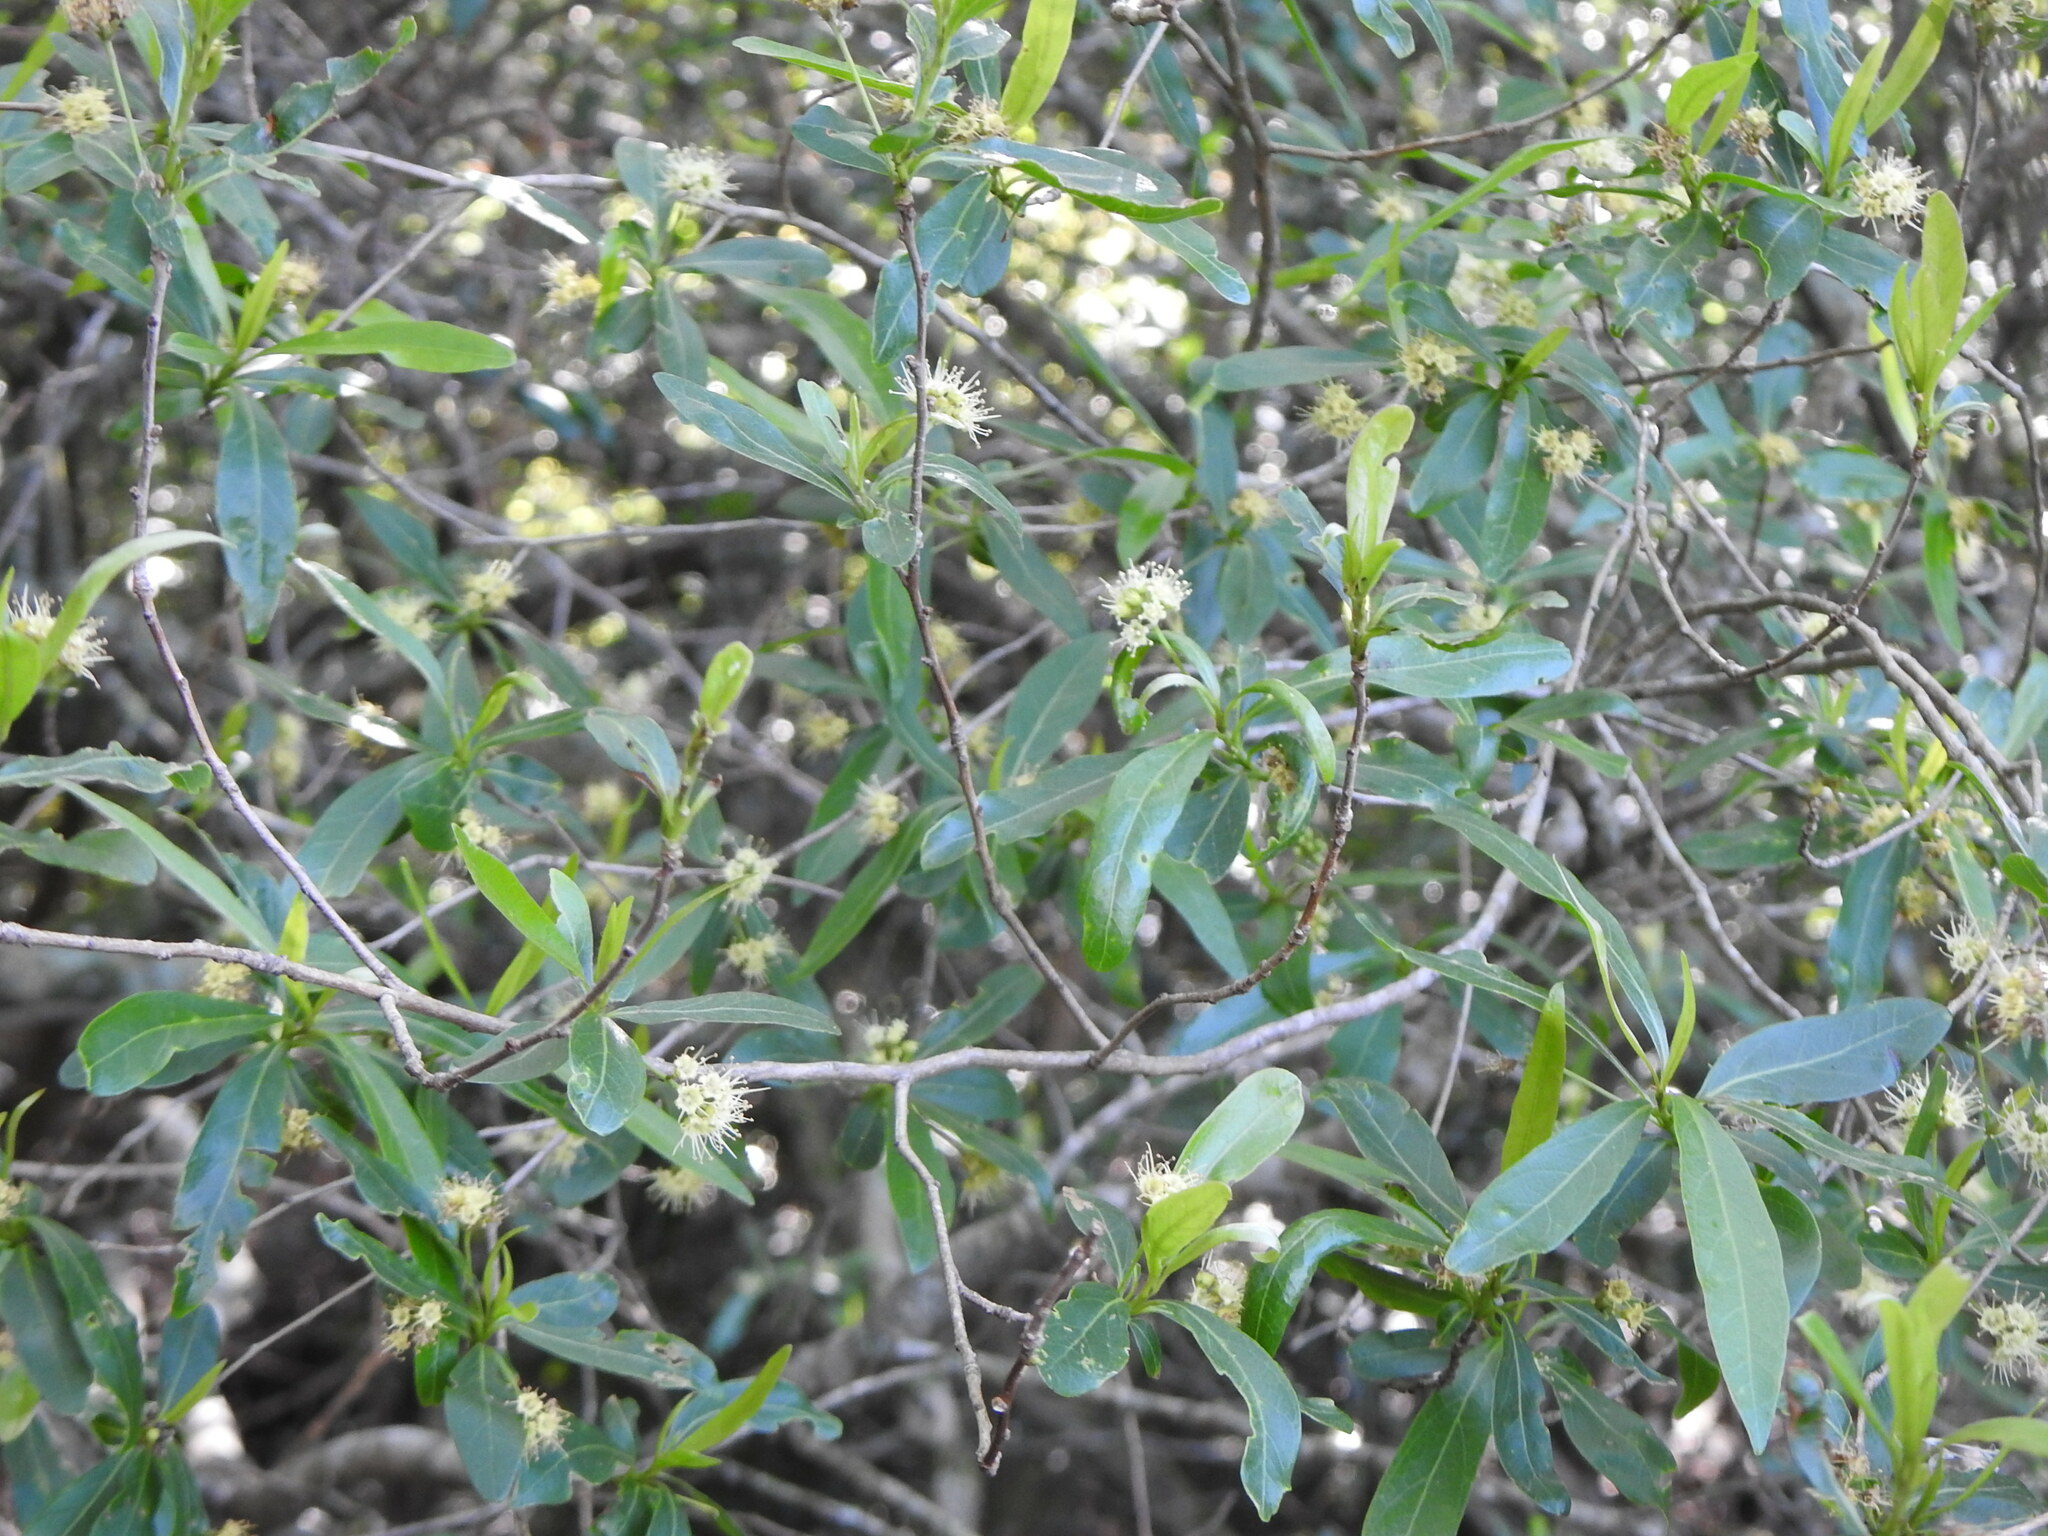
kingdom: Plantae
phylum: Tracheophyta
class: Magnoliopsida
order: Myrtales
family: Combretaceae
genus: Terminalia
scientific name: Terminalia australis
